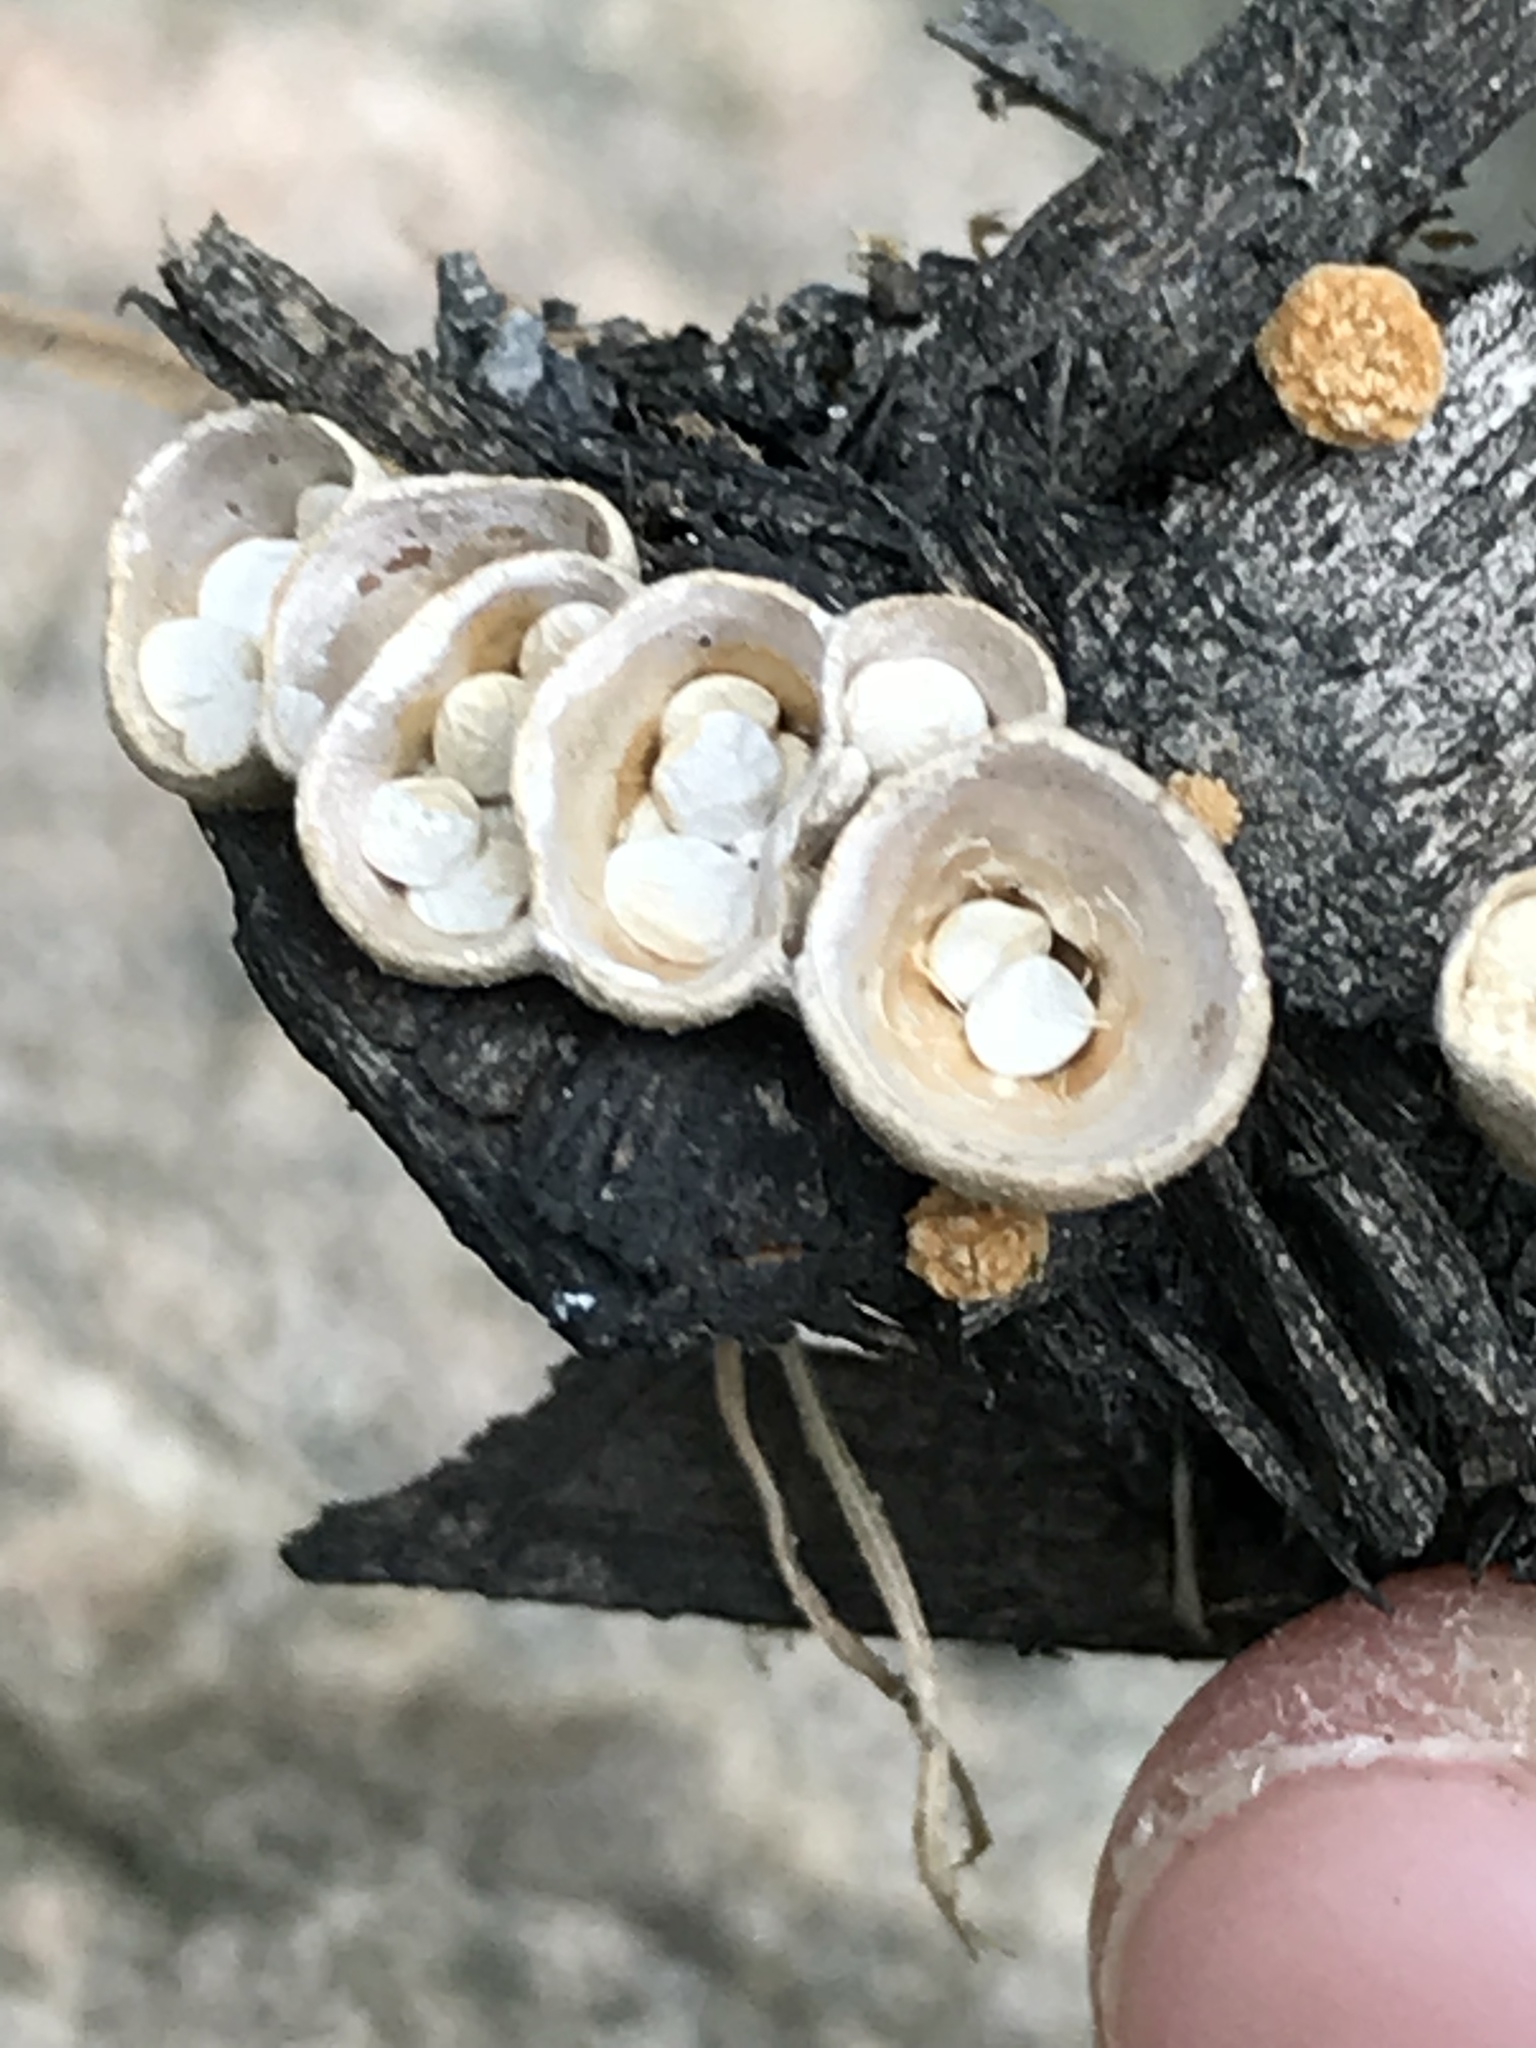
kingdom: Fungi
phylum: Basidiomycota
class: Agaricomycetes
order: Agaricales
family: Nidulariaceae
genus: Crucibulum
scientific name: Crucibulum laeve
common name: Common bird's nest
